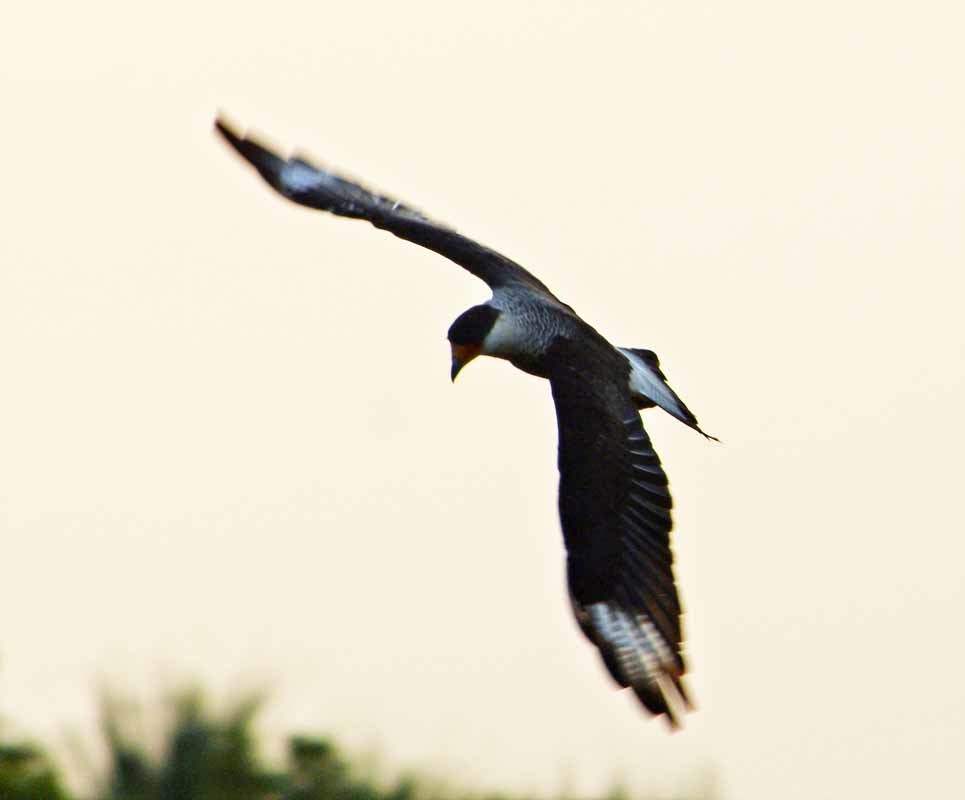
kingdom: Animalia
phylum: Chordata
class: Aves
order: Falconiformes
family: Falconidae
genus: Caracara
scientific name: Caracara plancus
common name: Southern caracara
